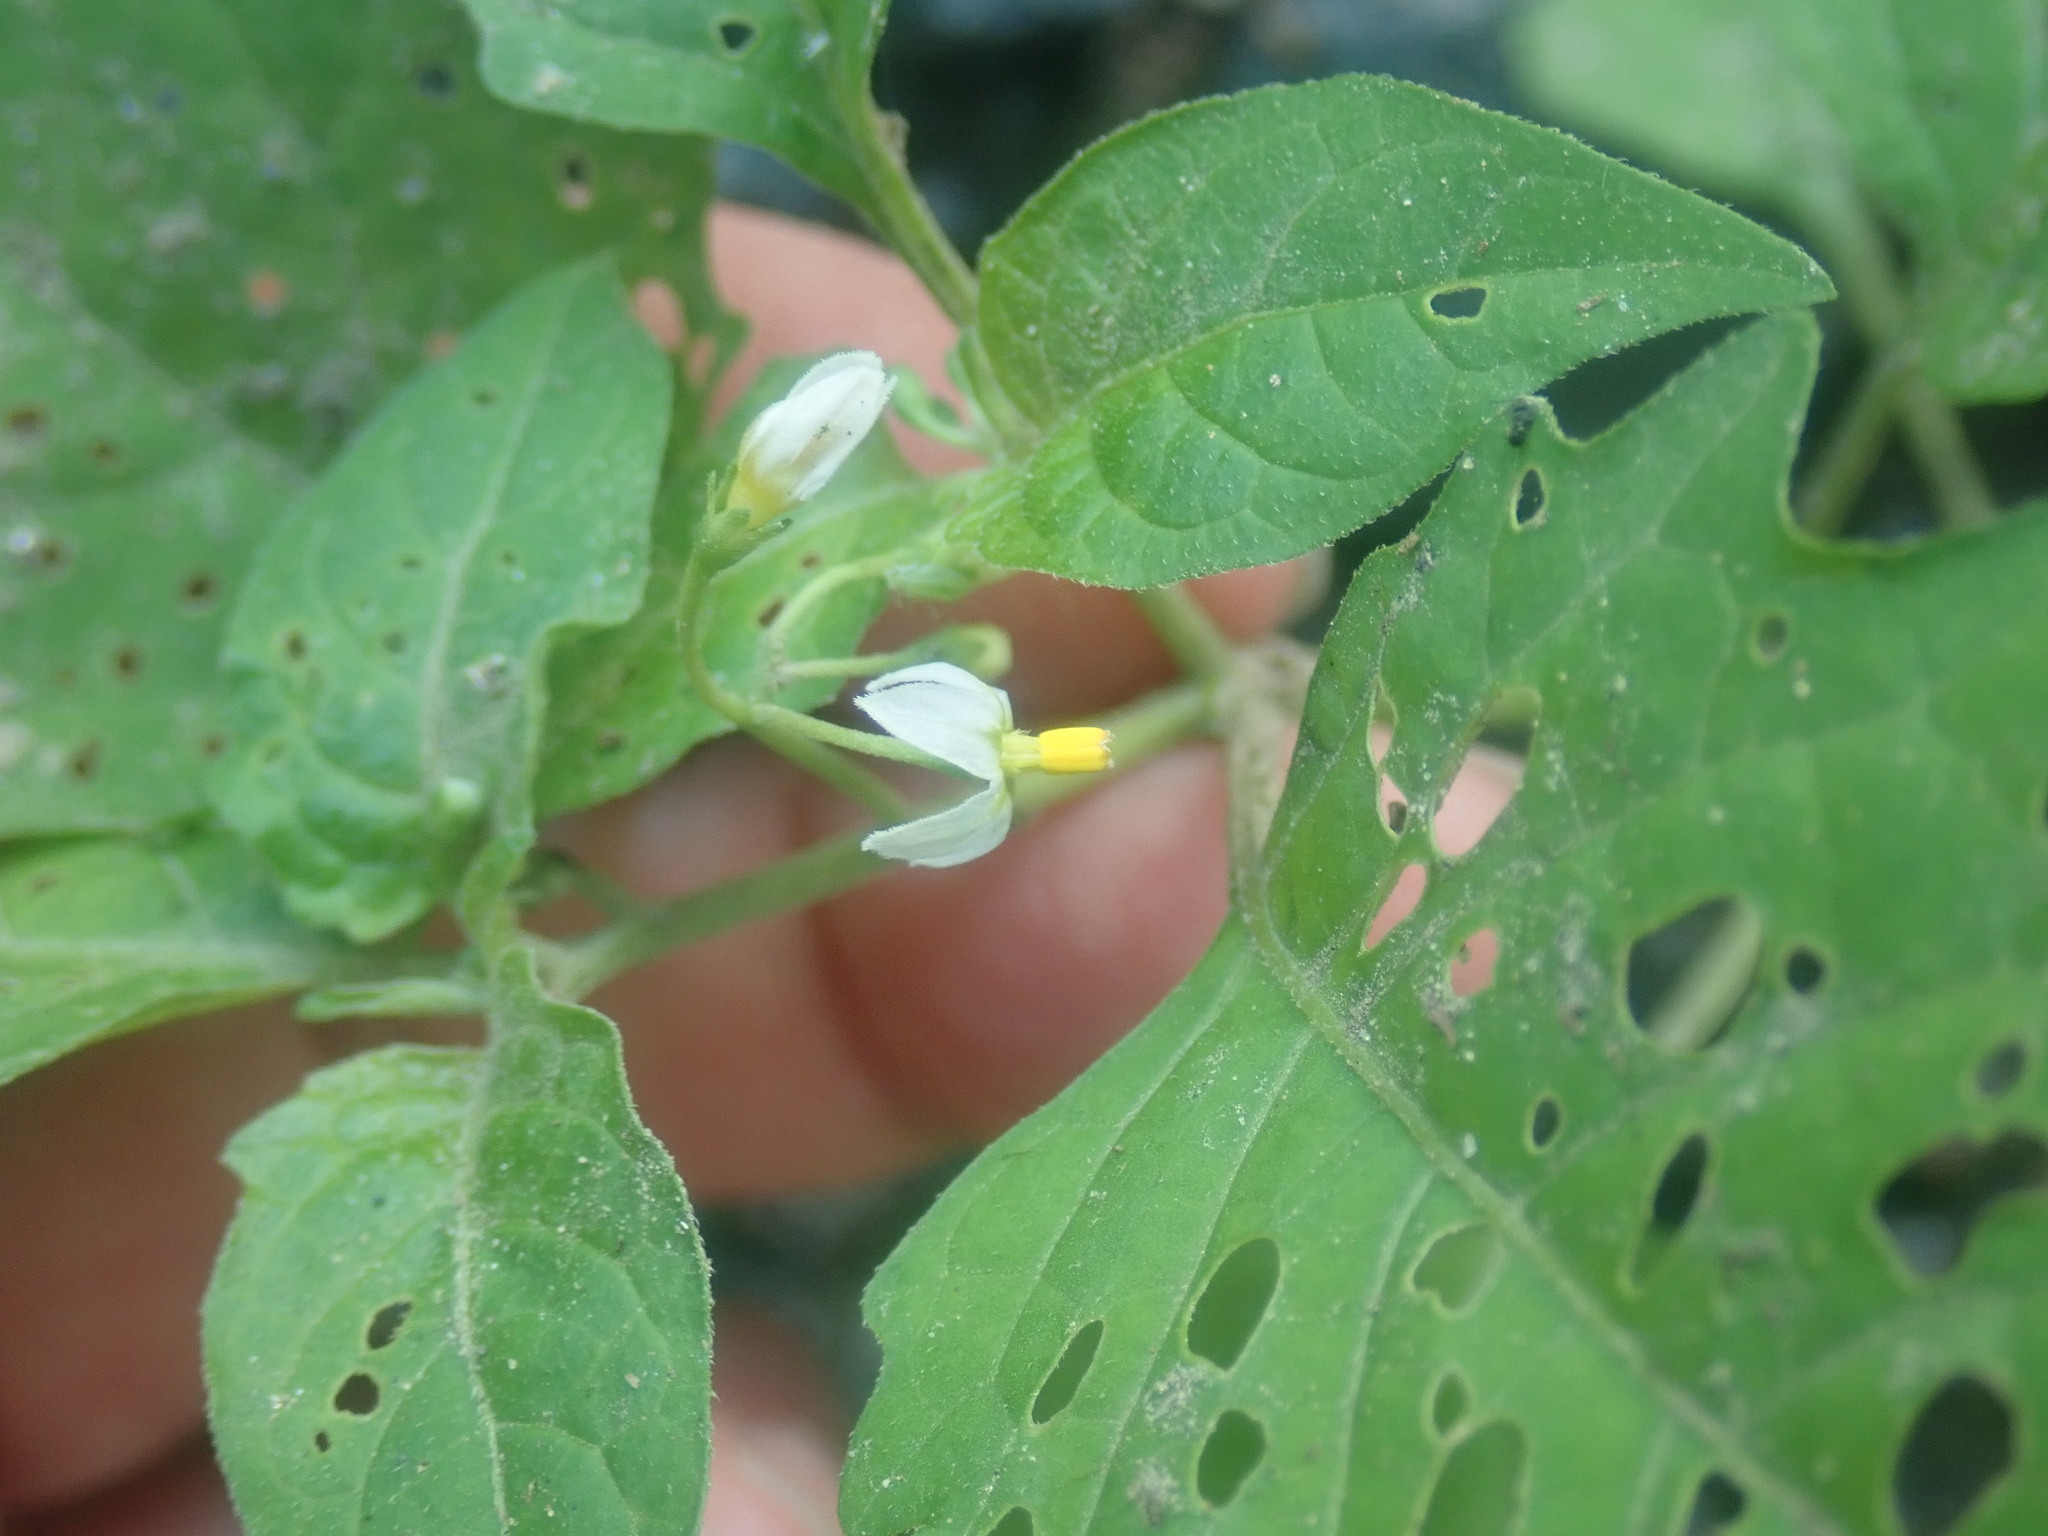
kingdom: Plantae
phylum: Tracheophyta
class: Magnoliopsida
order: Solanales
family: Solanaceae
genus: Solanum
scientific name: Solanum emulans
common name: Eastern black nightshade
